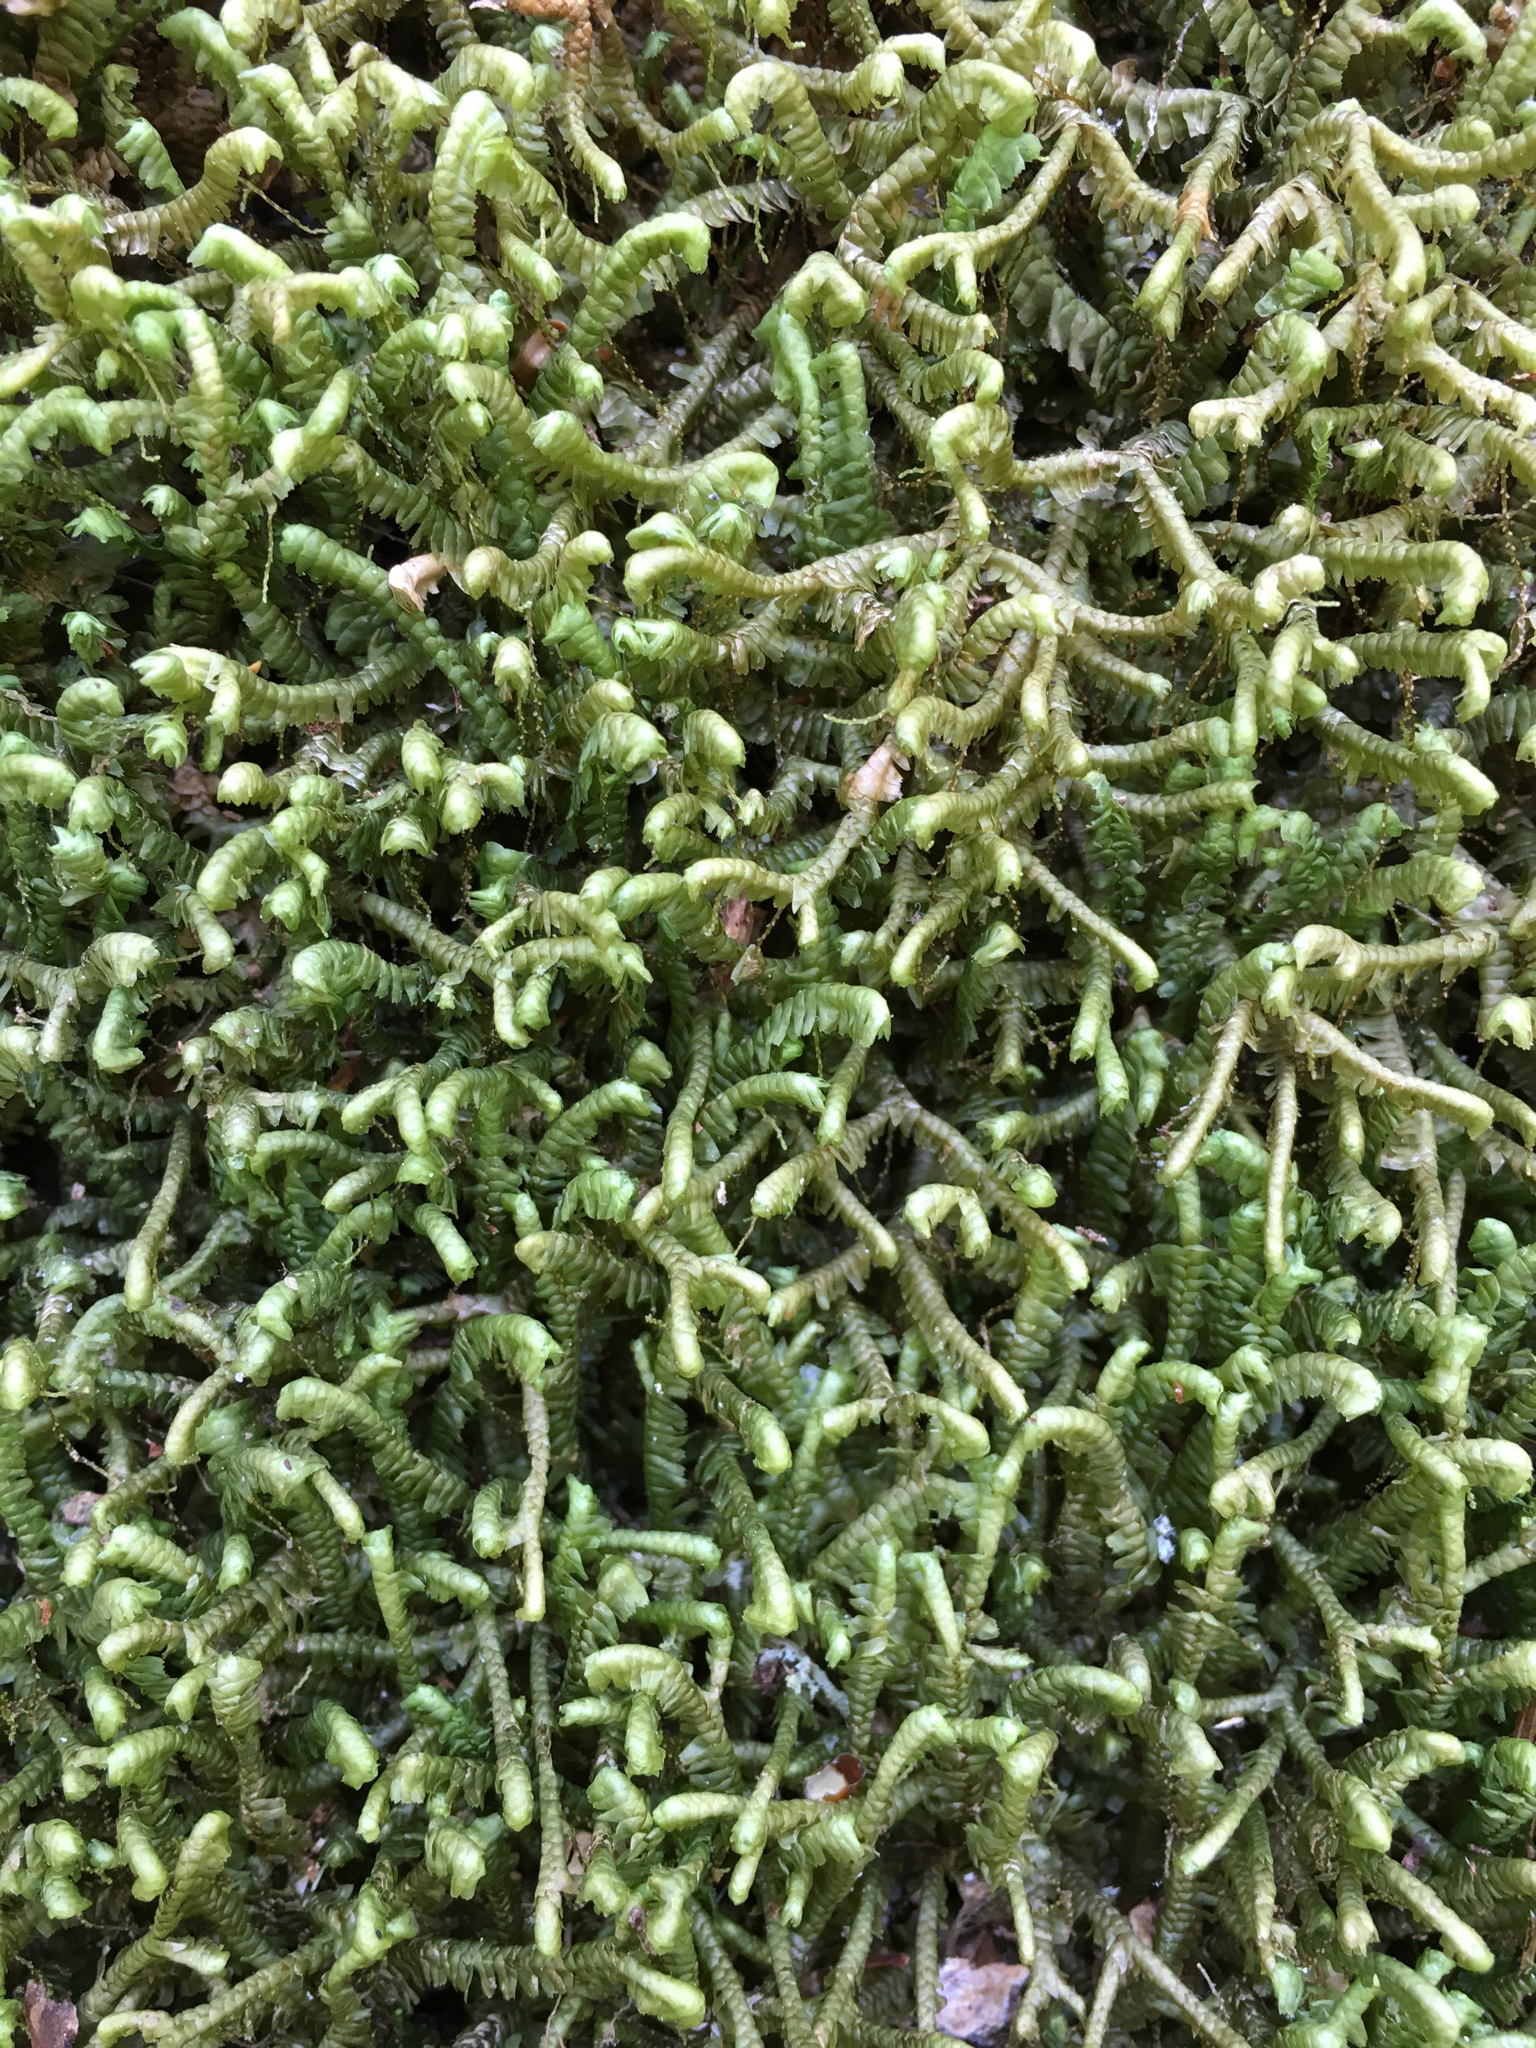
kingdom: Plantae
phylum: Marchantiophyta
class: Jungermanniopsida
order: Jungermanniales
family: Lepidoziaceae
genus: Bazzania
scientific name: Bazzania trilobata
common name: Three-lobed whipwort
